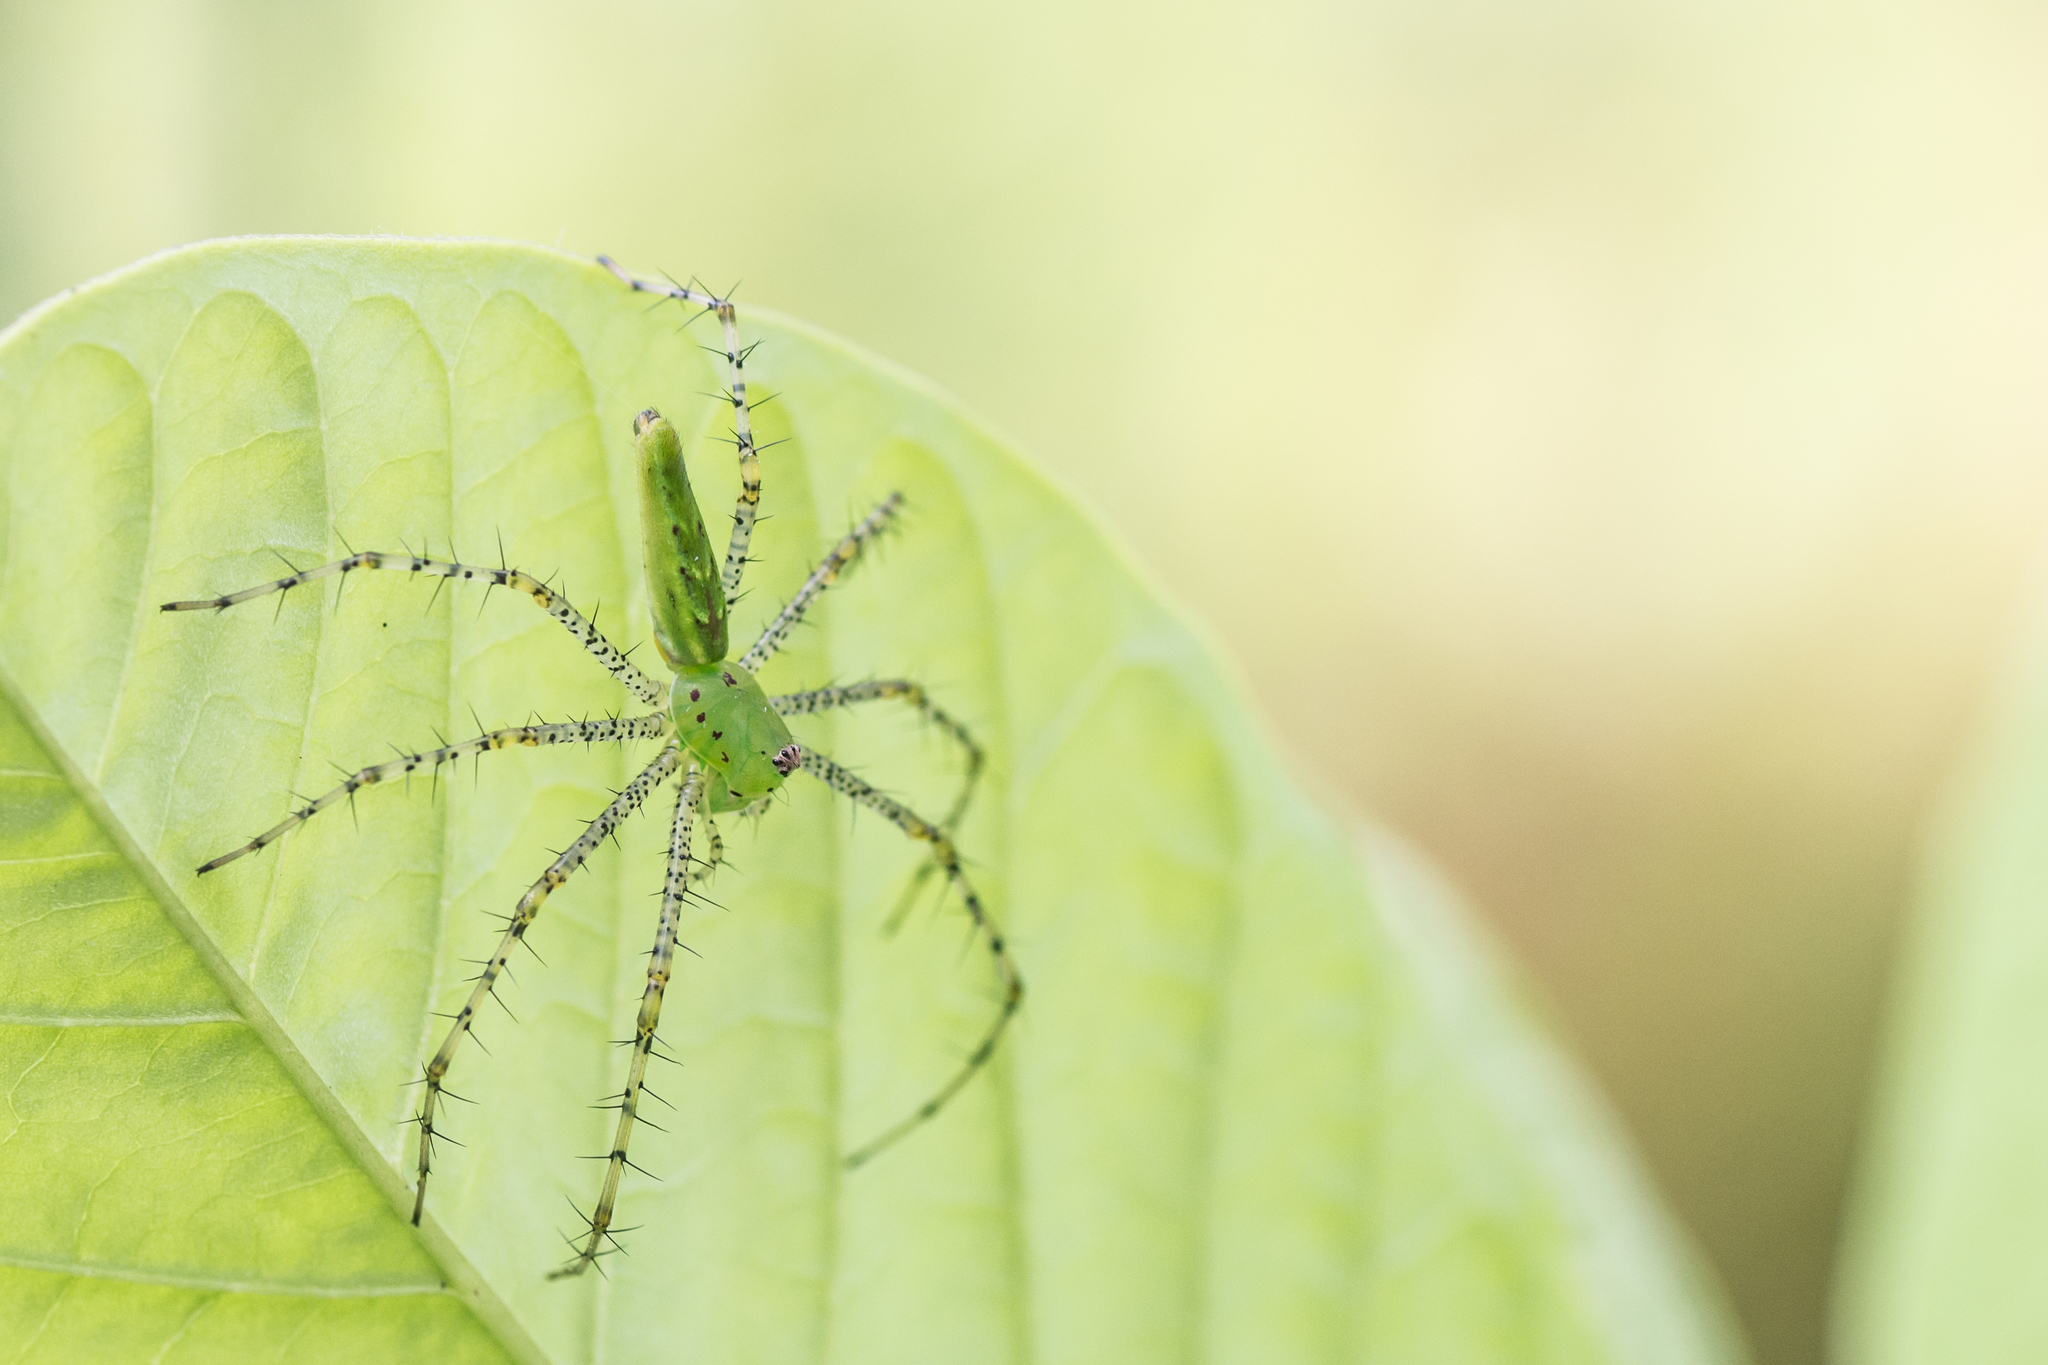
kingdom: Animalia
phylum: Arthropoda
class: Arachnida
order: Araneae
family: Oxyopidae
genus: Peucetia
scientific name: Peucetia viridans
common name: Lynx spiders
